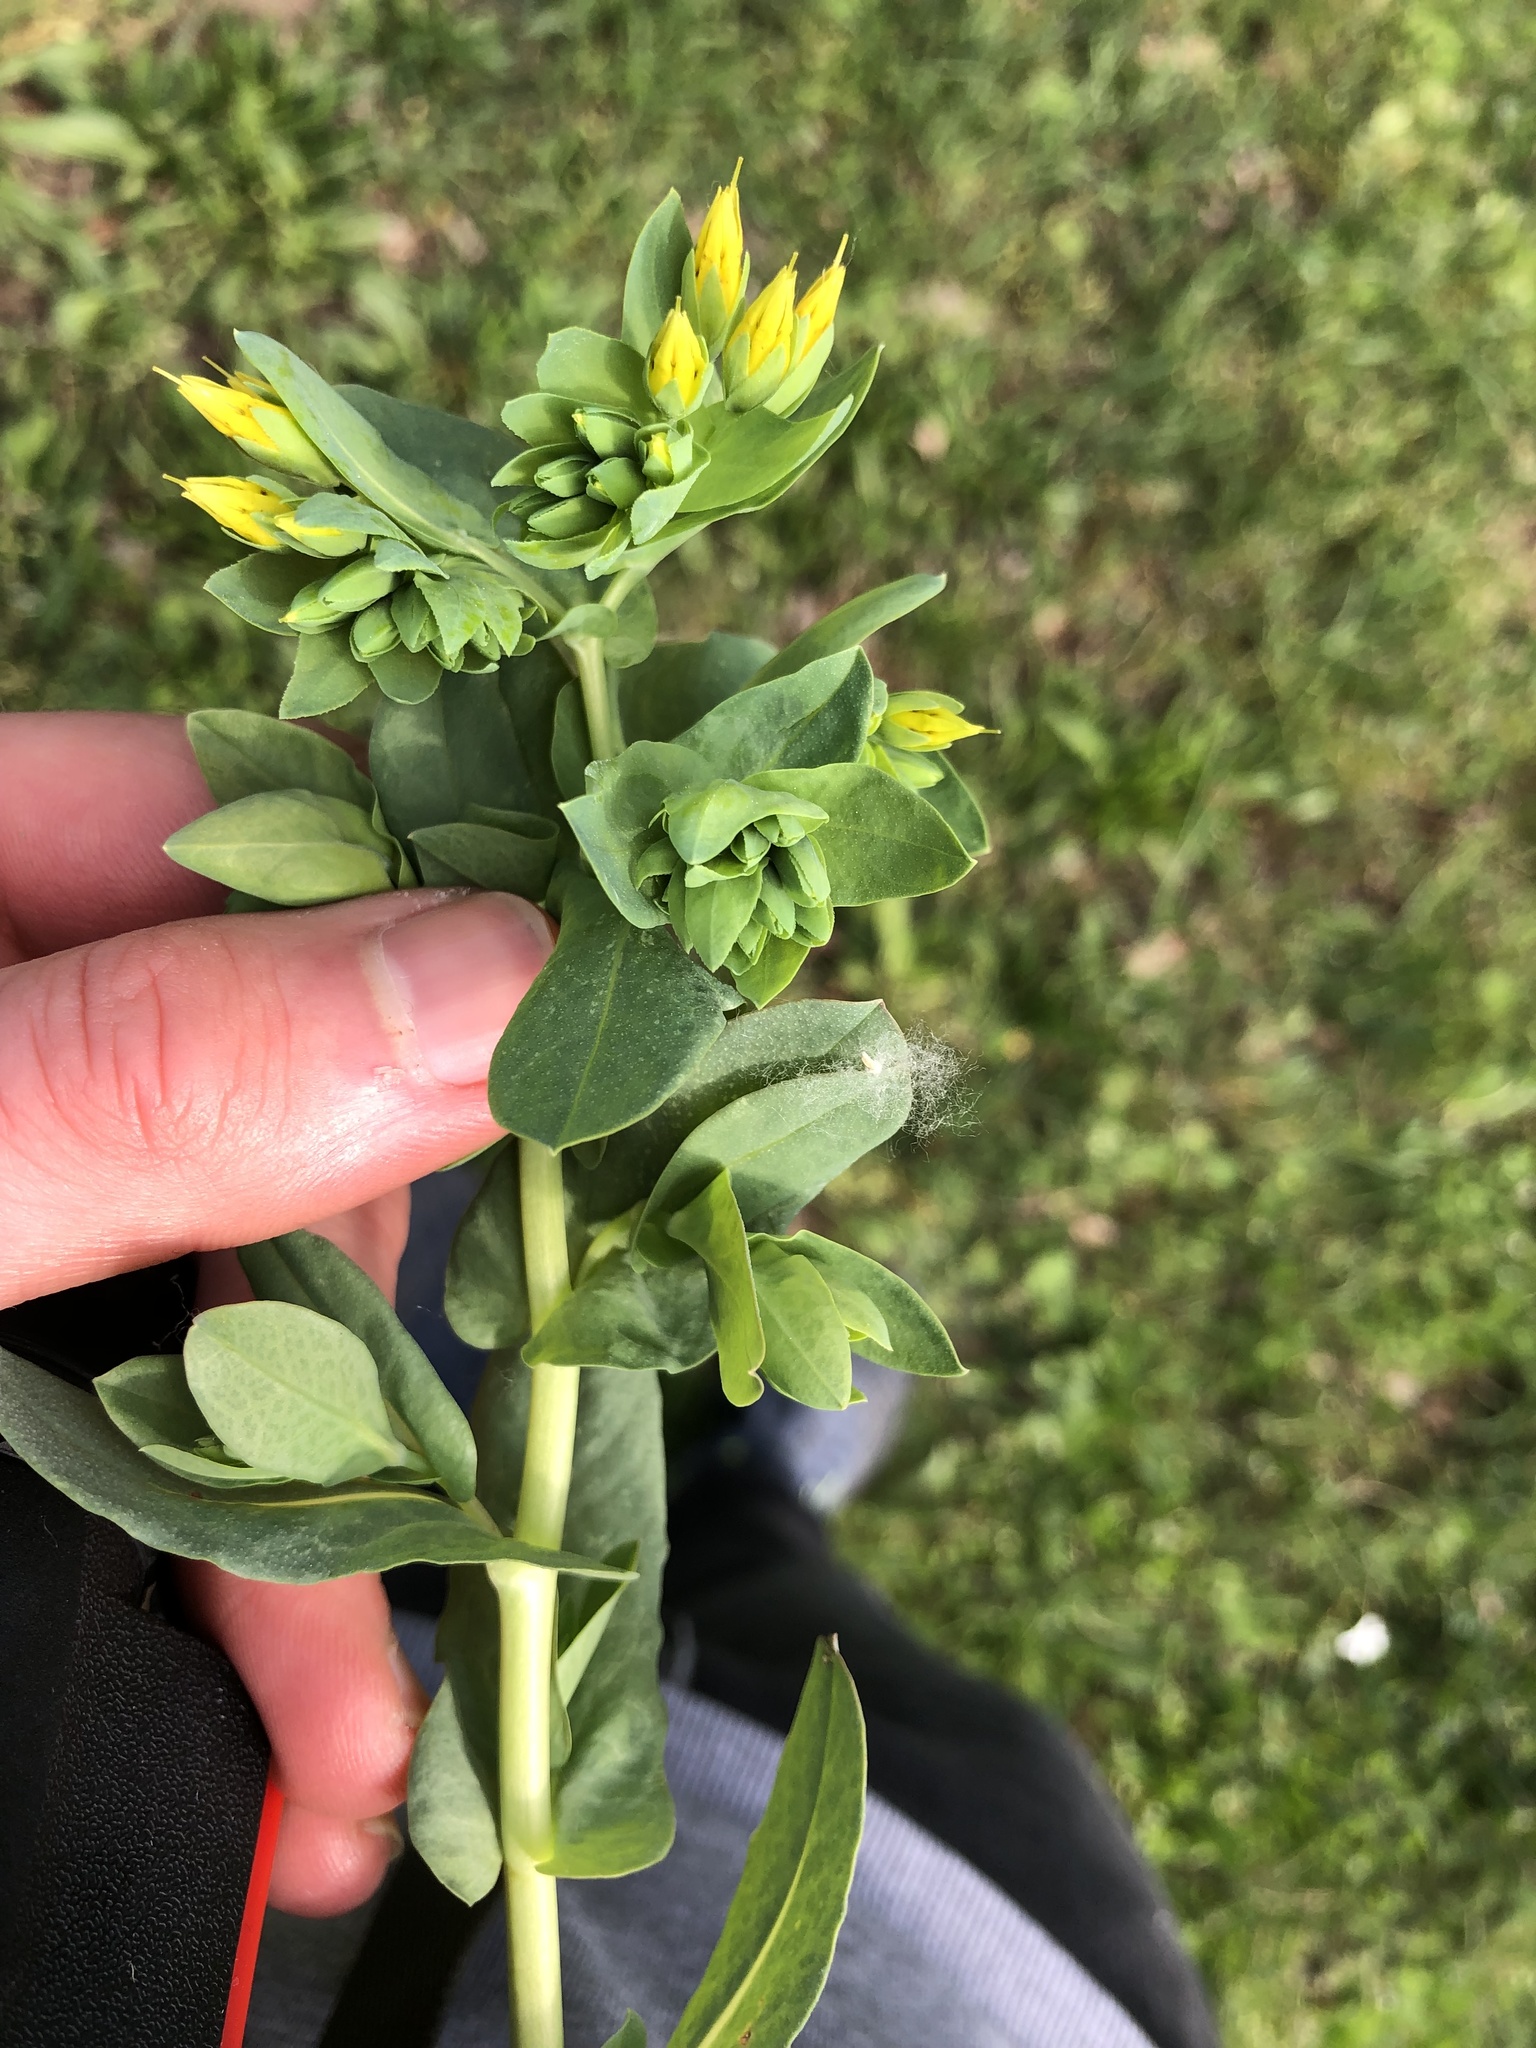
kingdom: Plantae
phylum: Tracheophyta
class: Magnoliopsida
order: Boraginales
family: Boraginaceae
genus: Cerinthe
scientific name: Cerinthe minor
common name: Lesser honeywort
